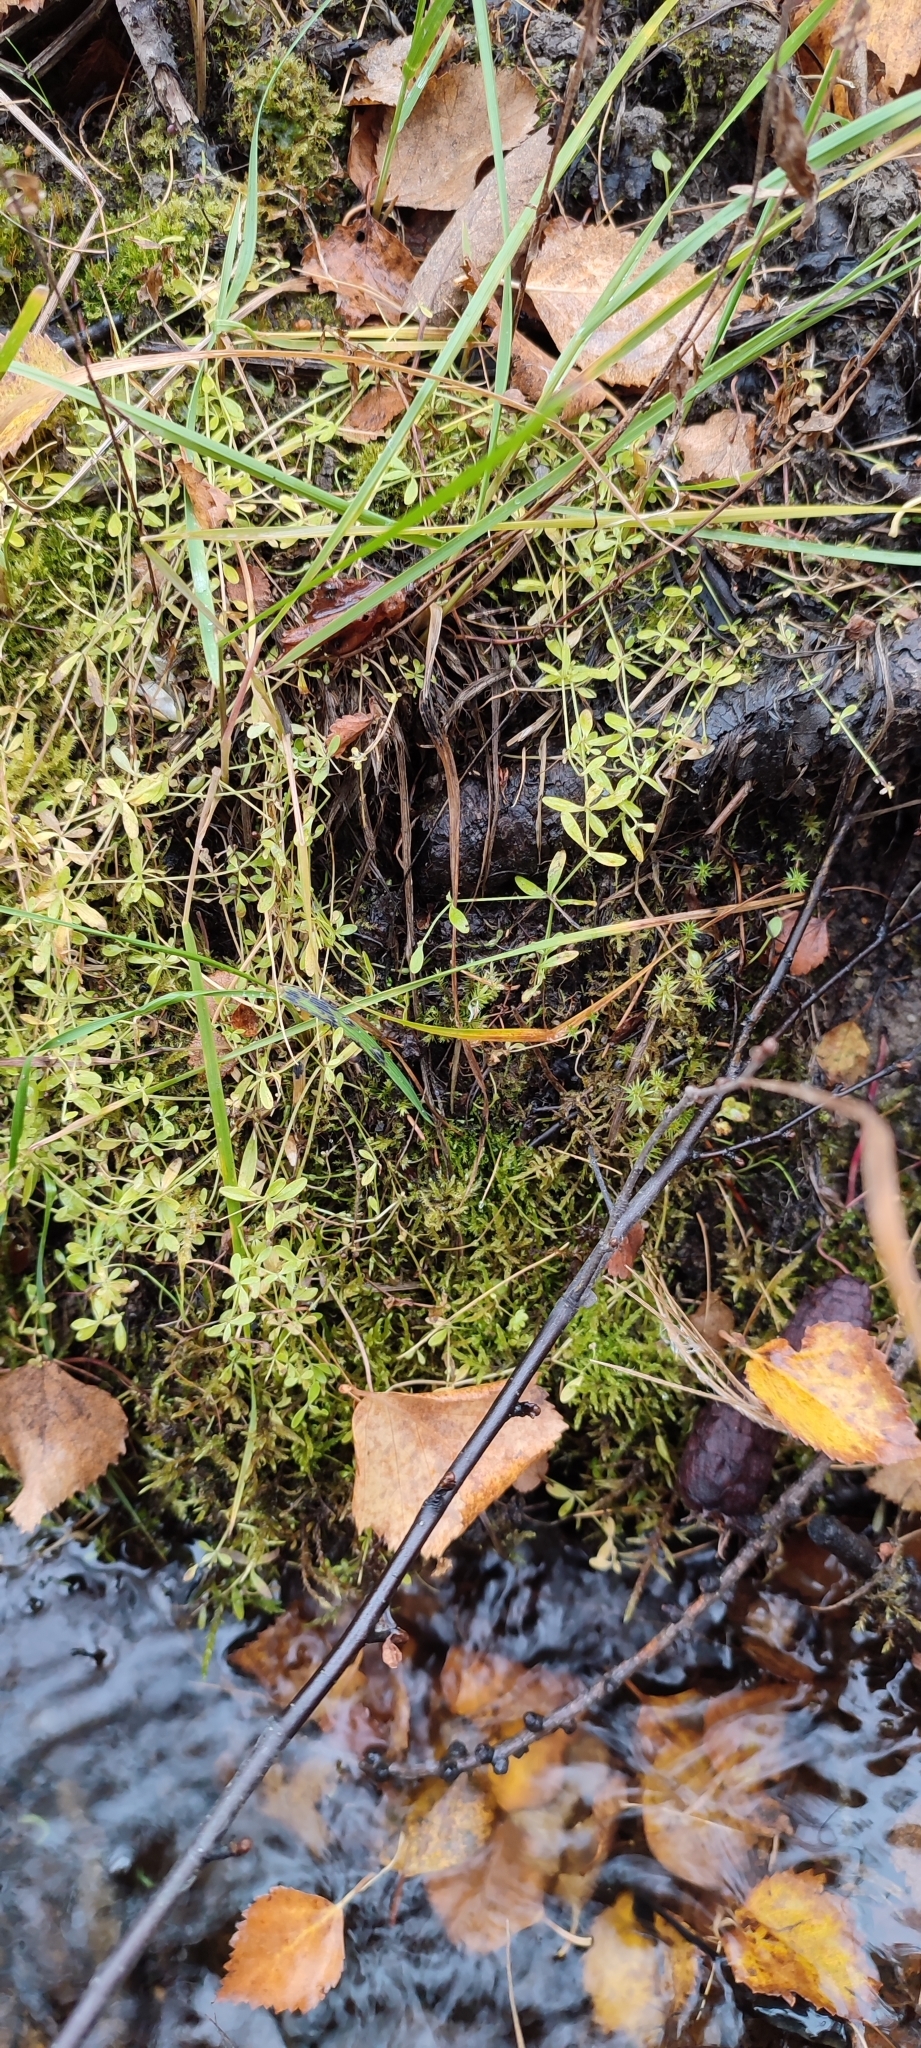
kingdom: Plantae
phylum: Tracheophyta
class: Magnoliopsida
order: Gentianales
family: Rubiaceae
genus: Galium
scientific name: Galium palustre
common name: Common marsh-bedstraw
